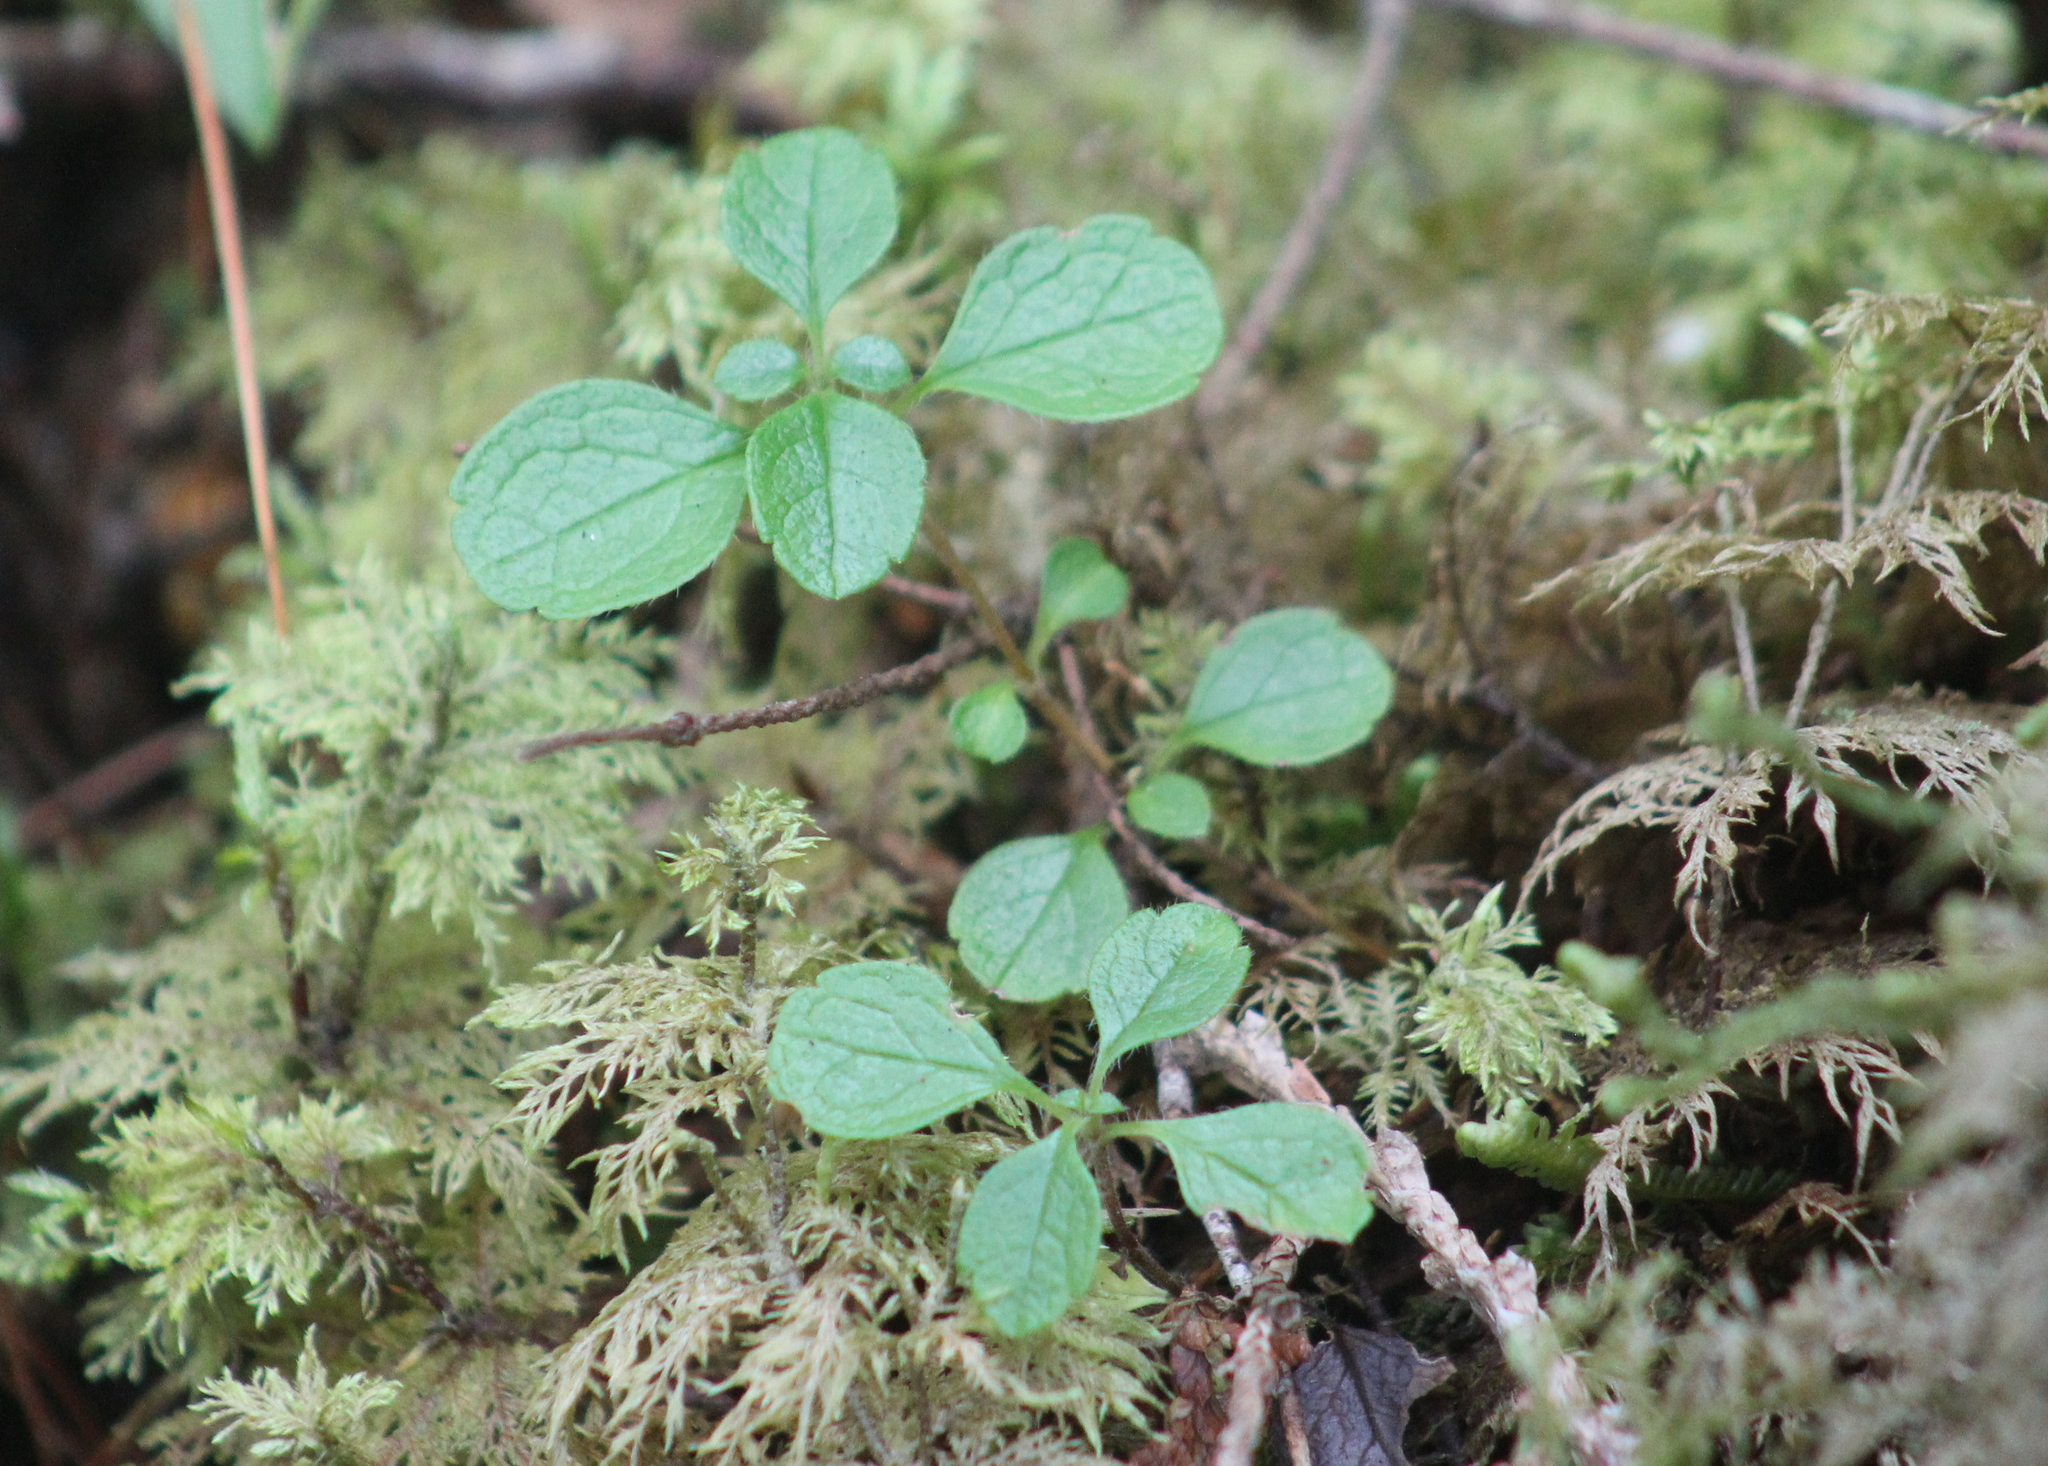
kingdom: Plantae
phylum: Tracheophyta
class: Magnoliopsida
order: Dipsacales
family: Caprifoliaceae
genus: Linnaea
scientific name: Linnaea borealis
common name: Twinflower
